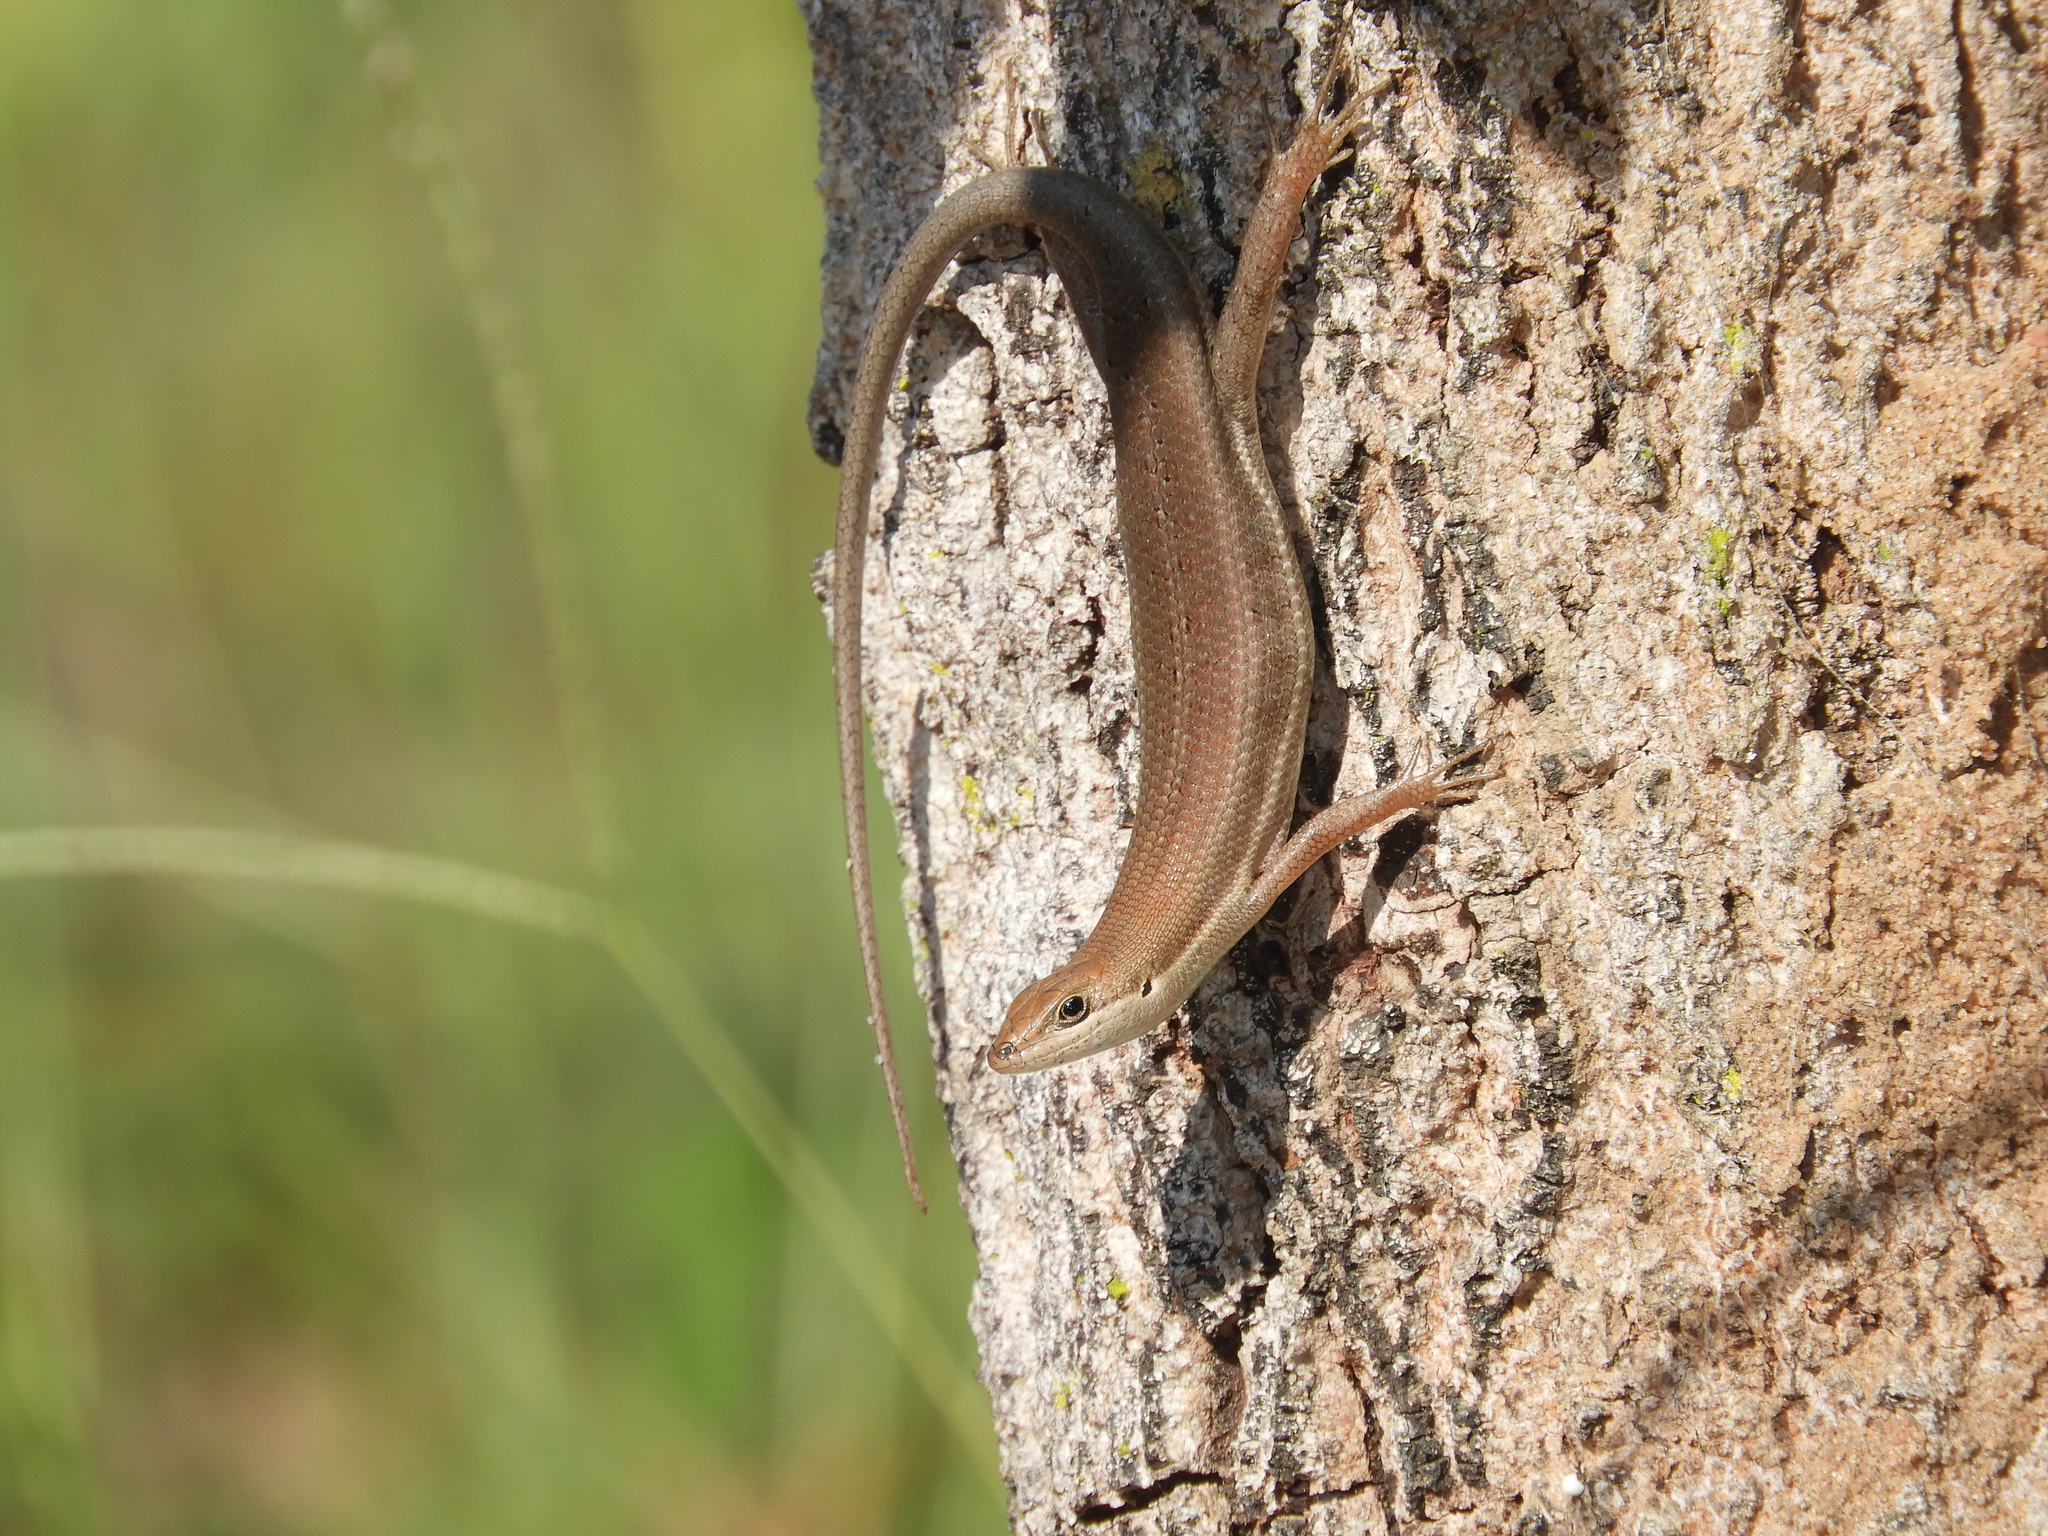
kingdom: Animalia
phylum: Chordata
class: Squamata
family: Scincidae
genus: Trachylepis
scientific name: Trachylepis varia
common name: Eastern variable skink
